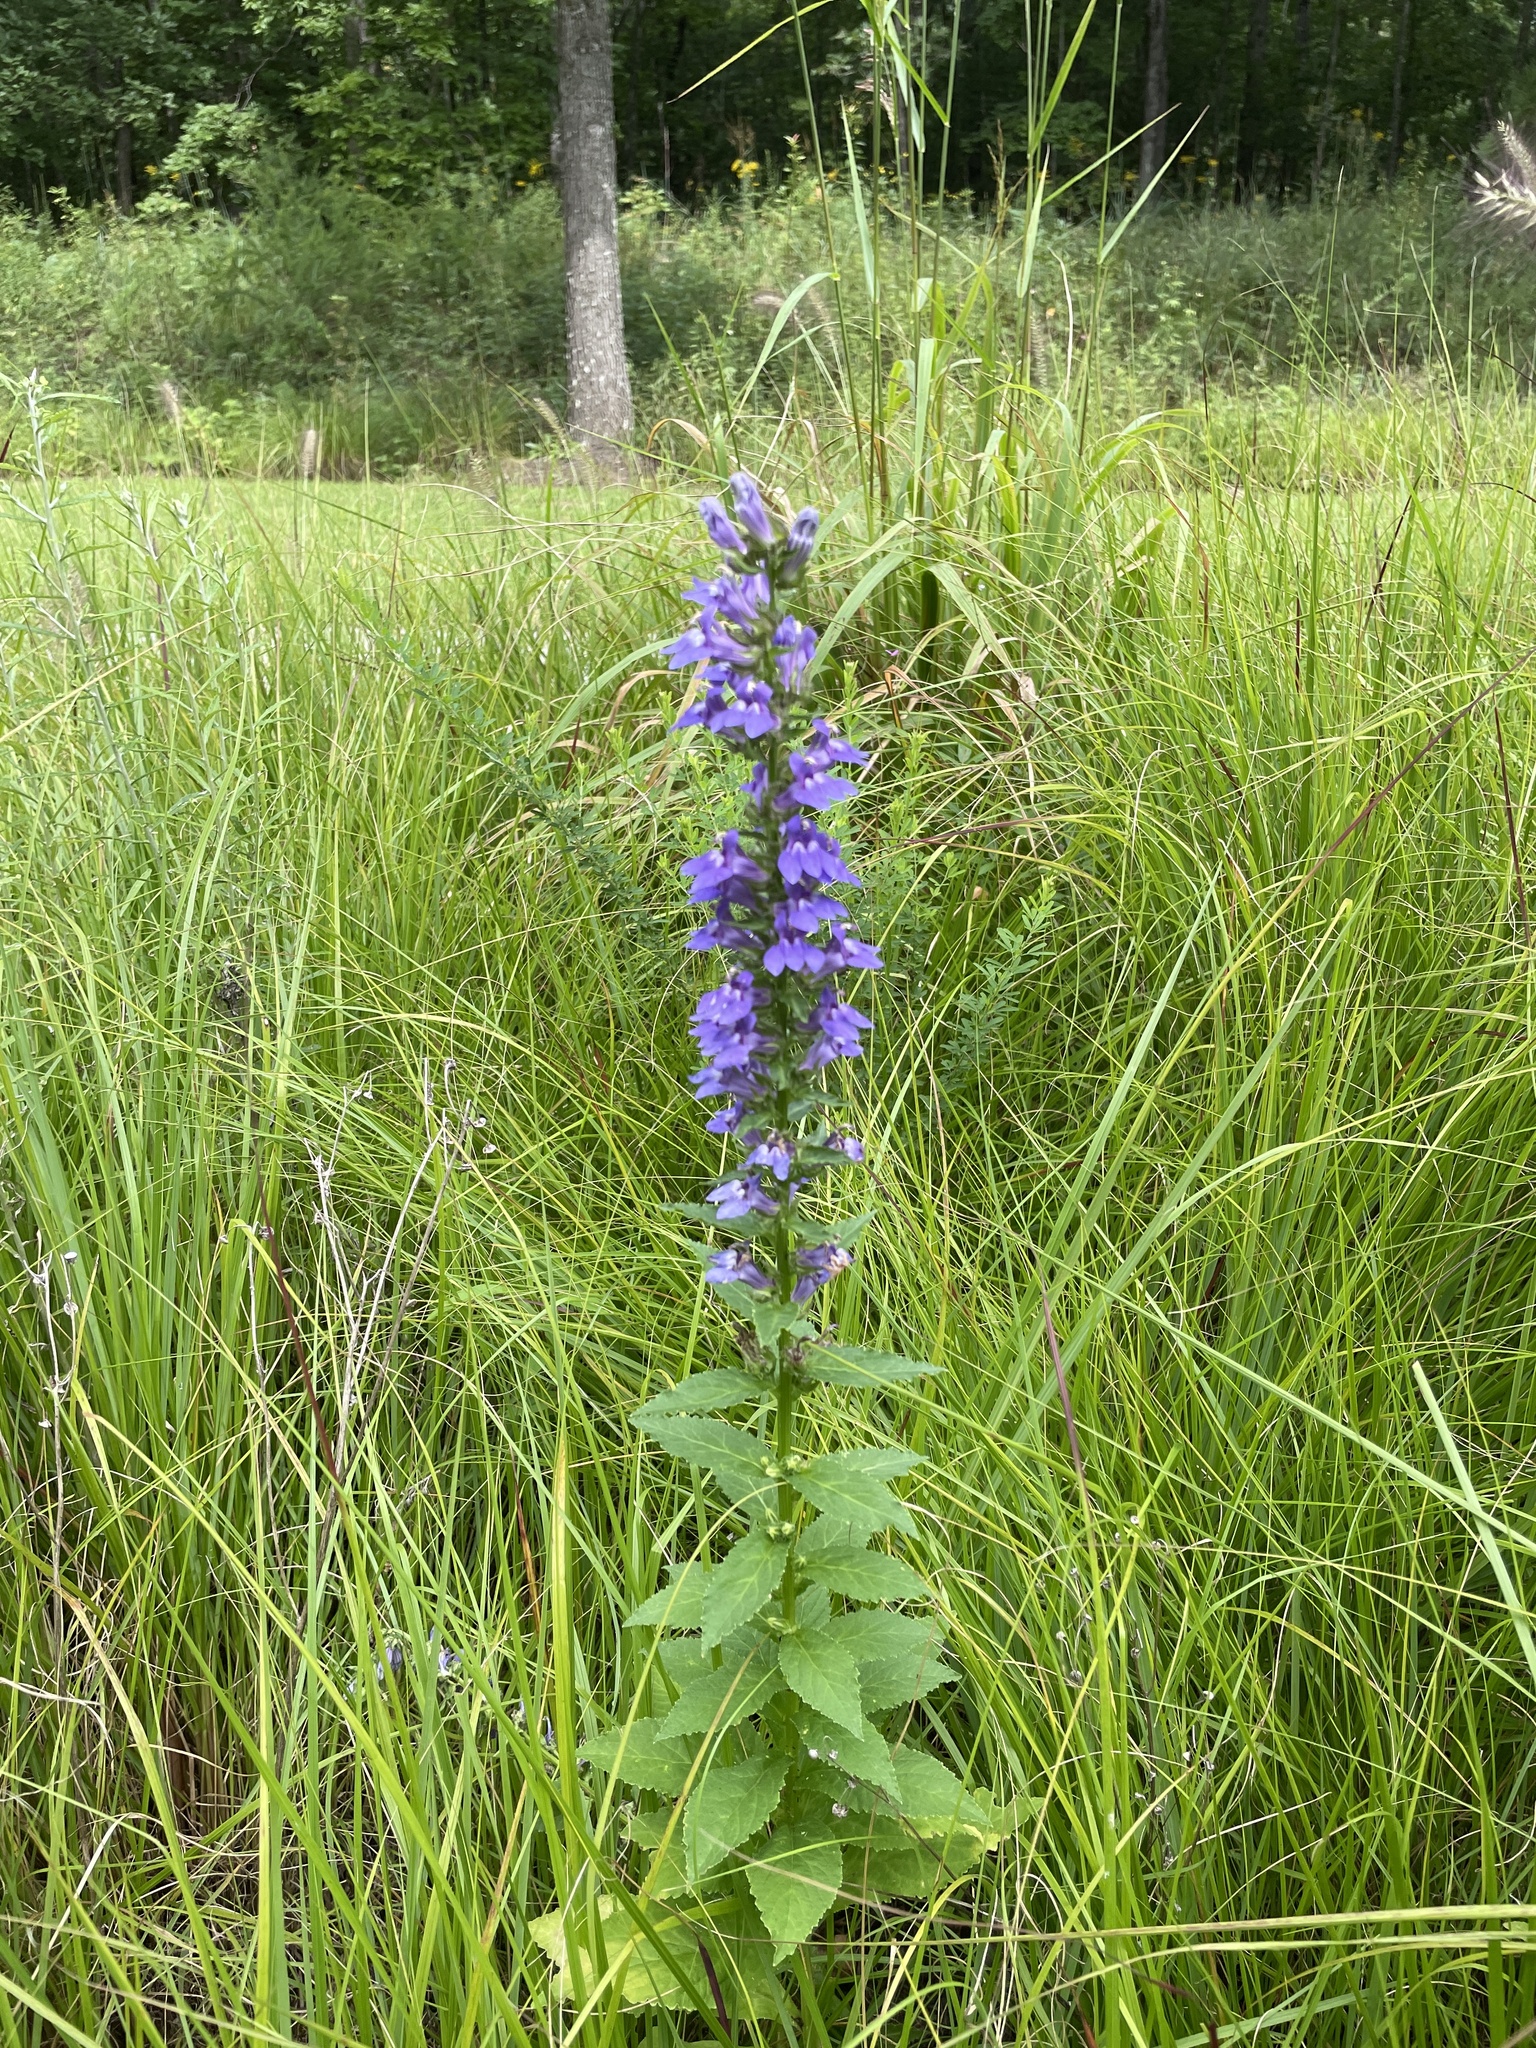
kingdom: Plantae
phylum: Tracheophyta
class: Magnoliopsida
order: Asterales
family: Campanulaceae
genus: Lobelia
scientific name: Lobelia siphilitica
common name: Great lobelia
